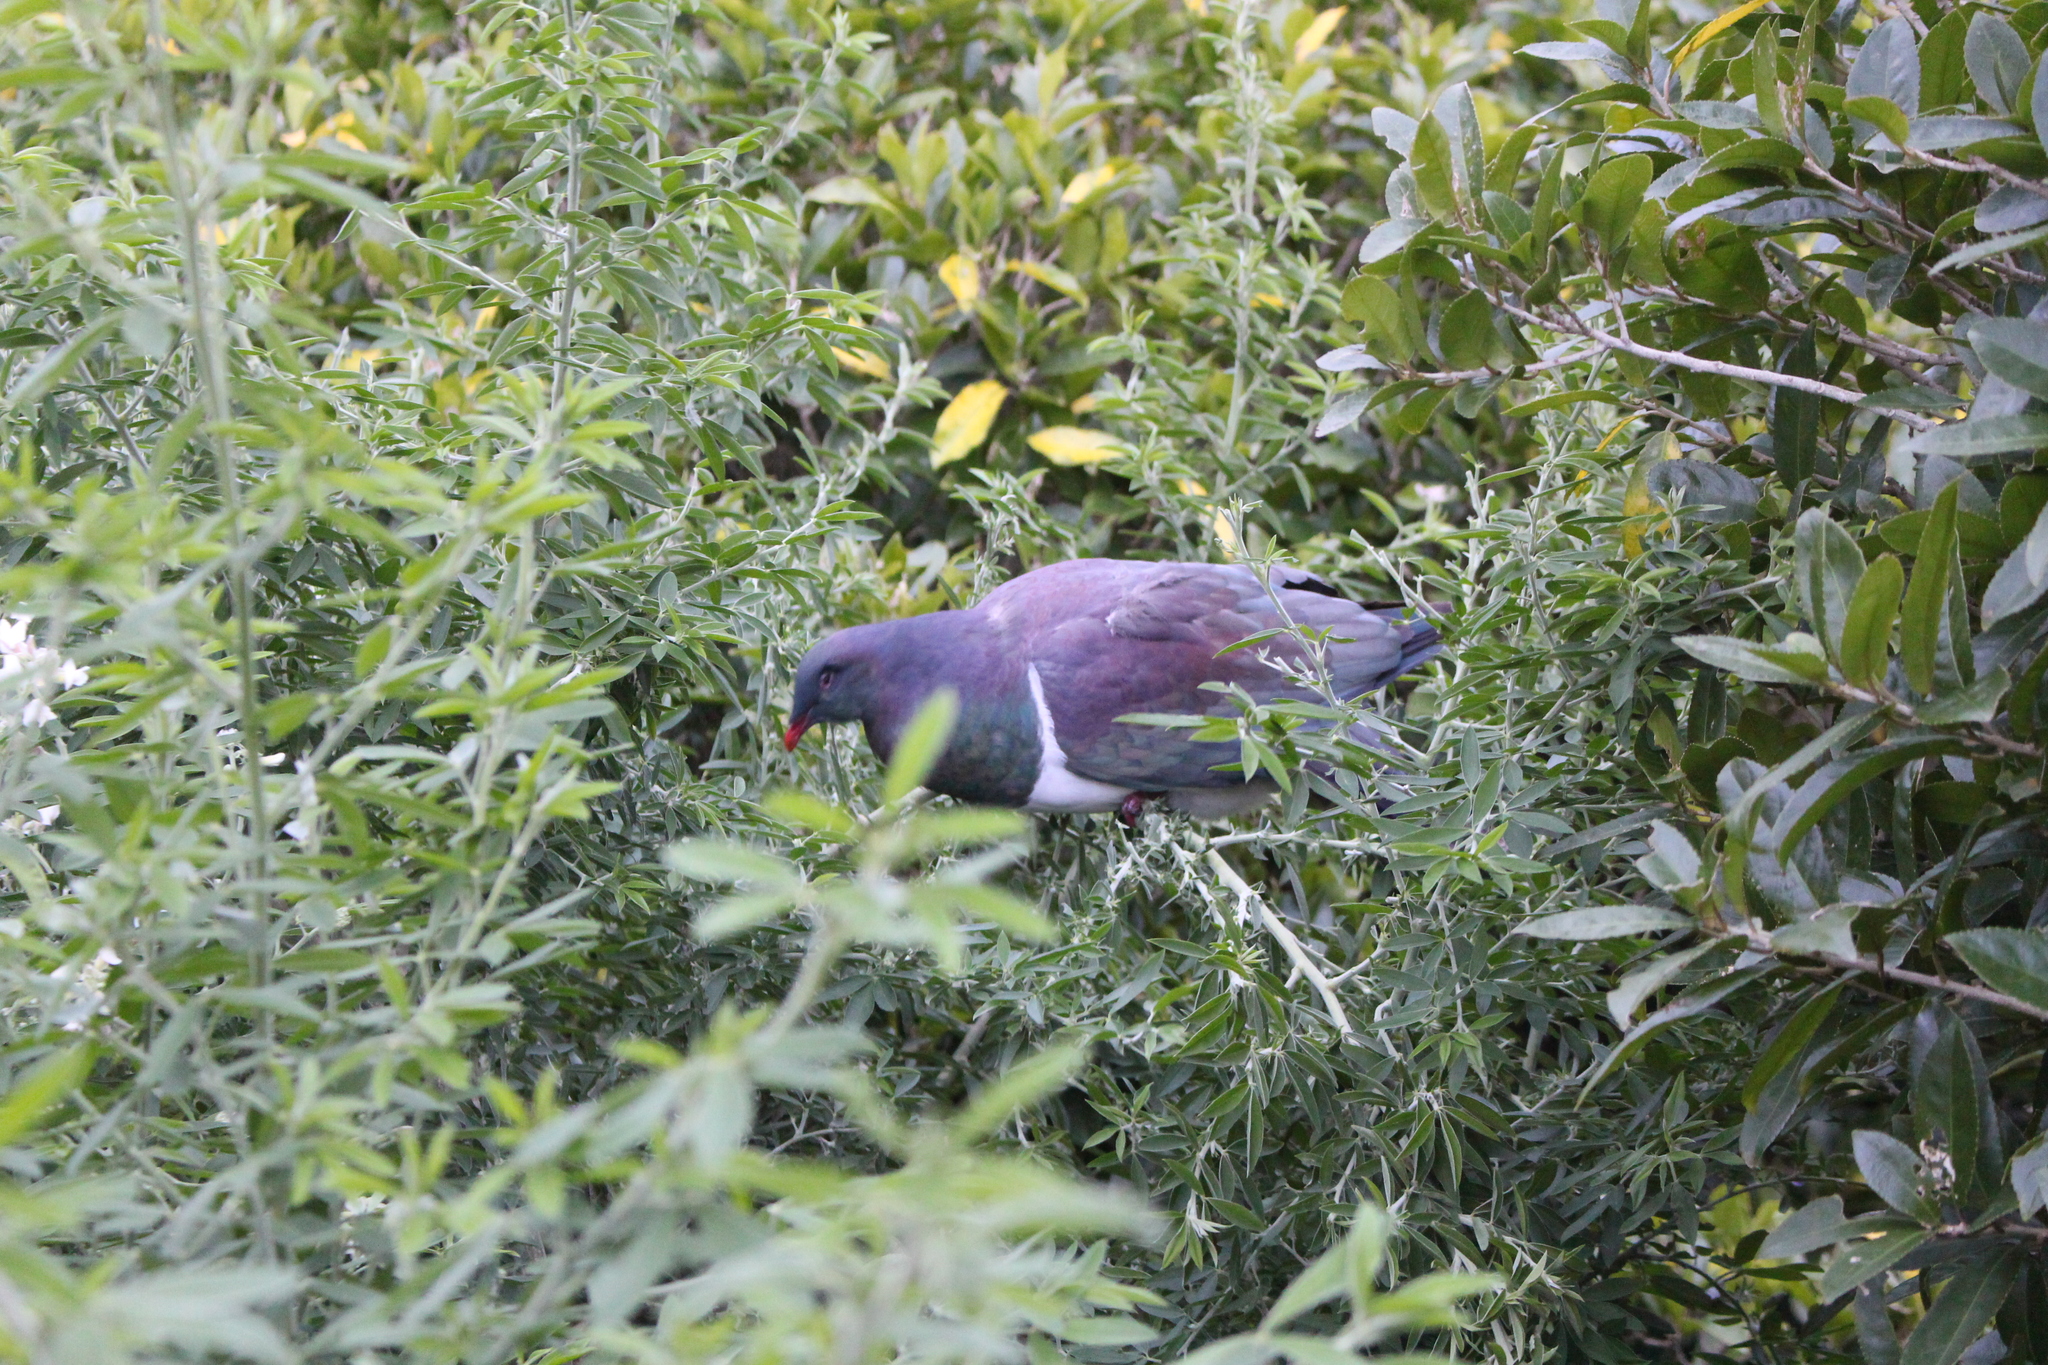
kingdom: Animalia
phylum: Chordata
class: Aves
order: Columbiformes
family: Columbidae
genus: Hemiphaga
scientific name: Hemiphaga novaeseelandiae
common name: New zealand pigeon
